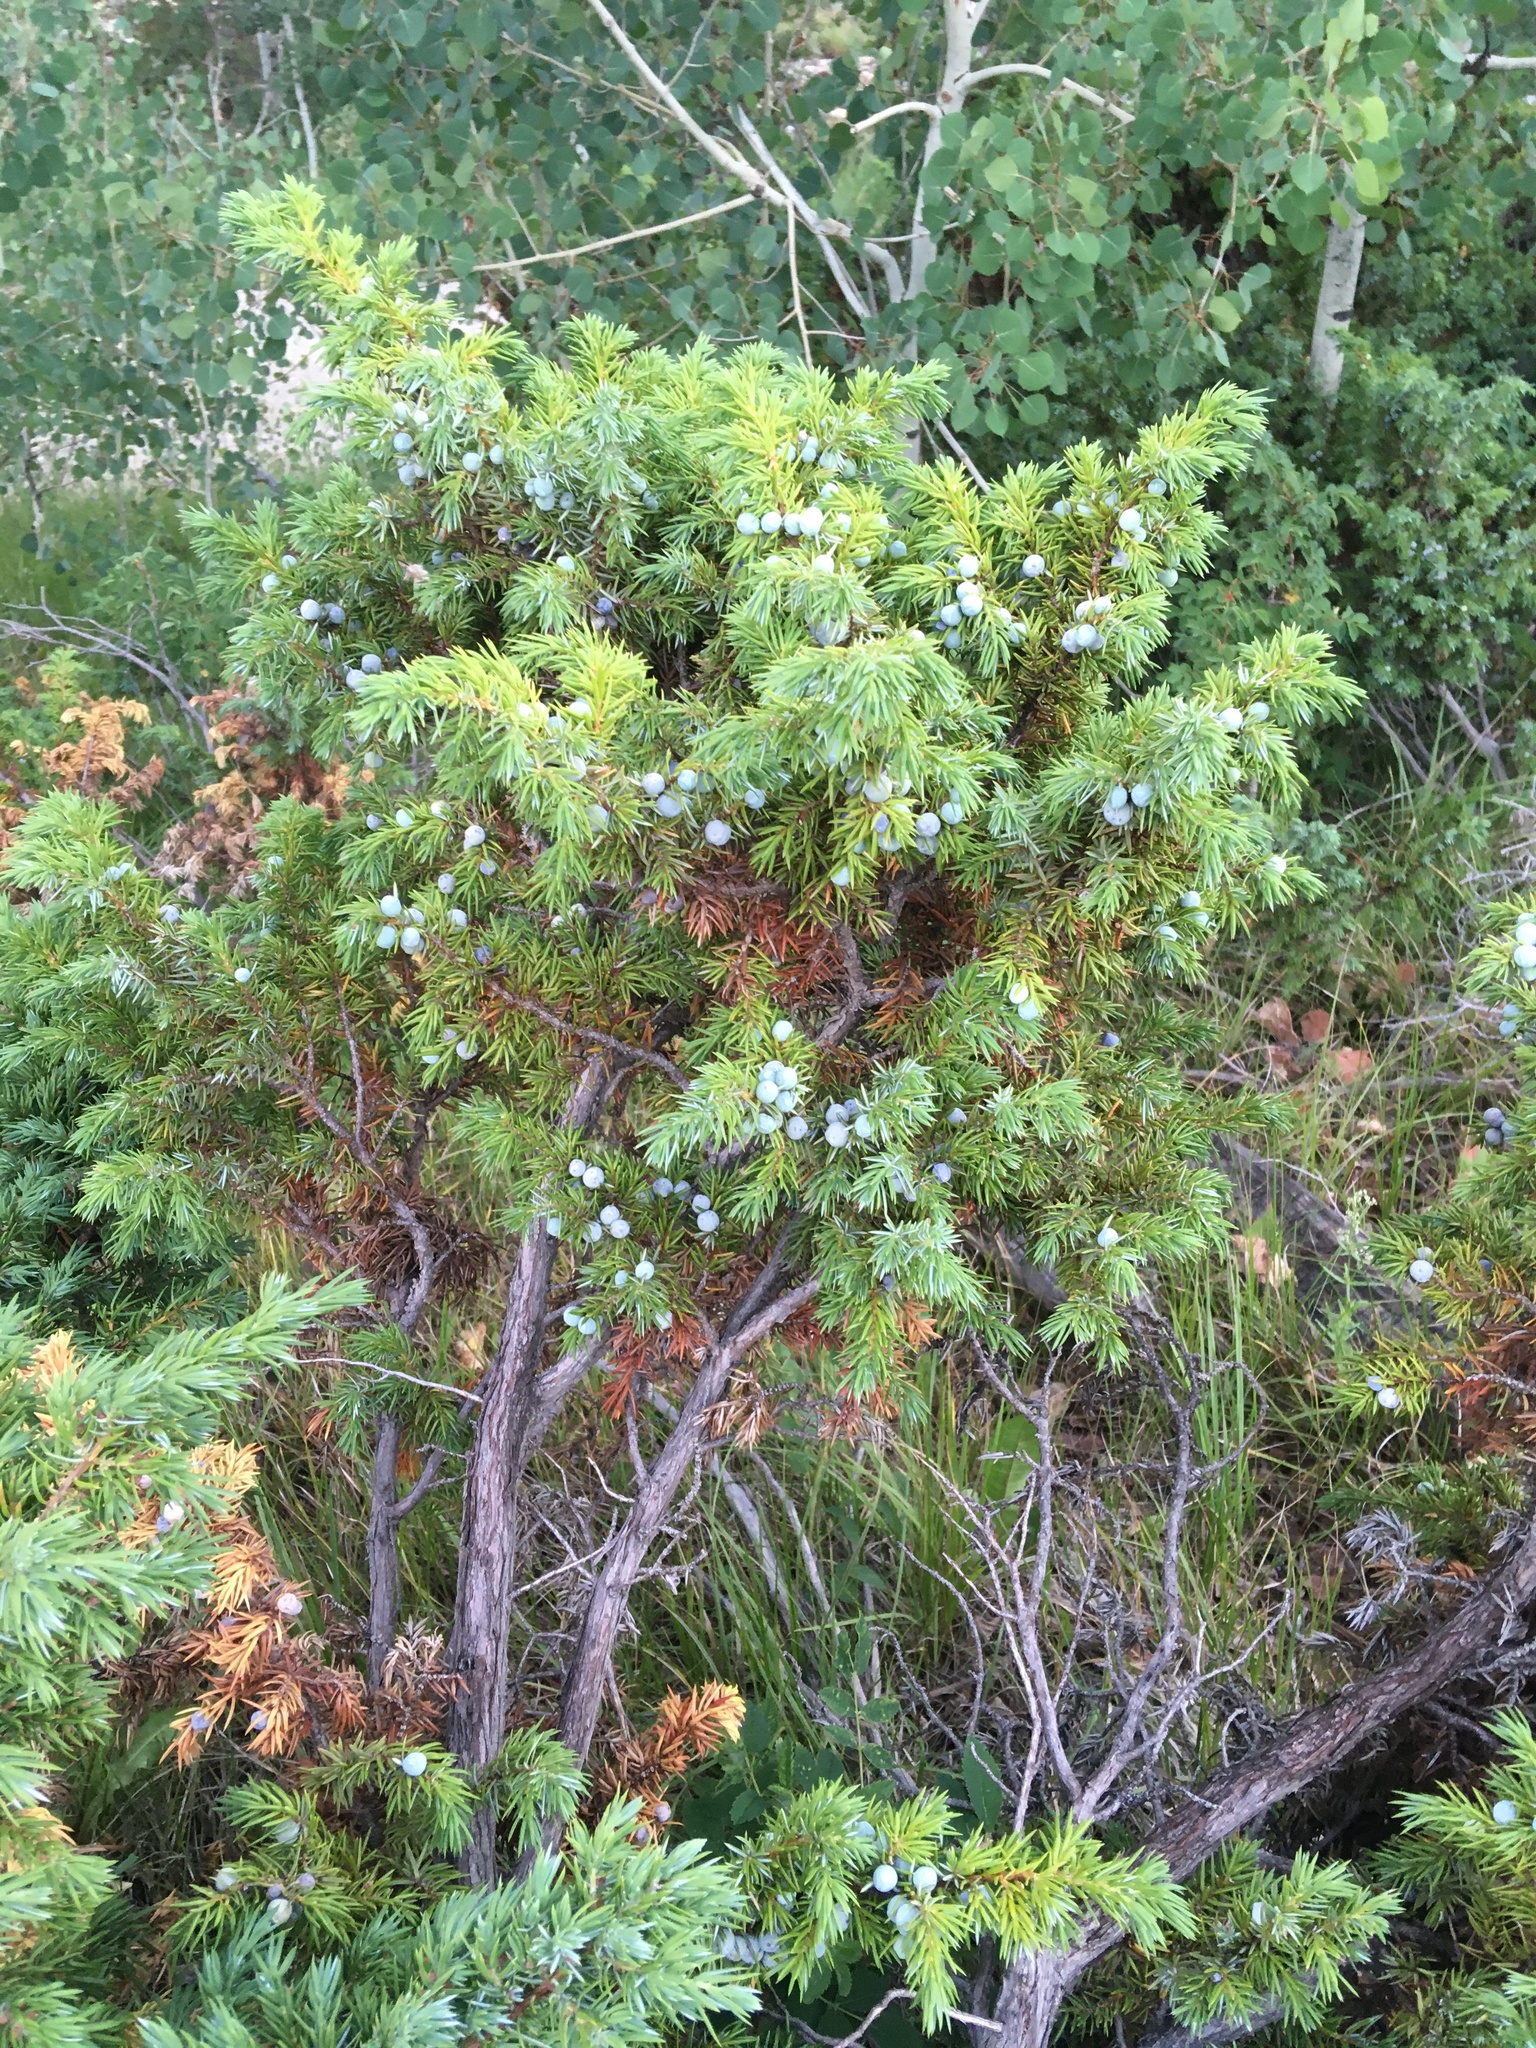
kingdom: Plantae
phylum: Tracheophyta
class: Pinopsida
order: Pinales
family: Cupressaceae
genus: Juniperus
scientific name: Juniperus communis
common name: Common juniper
